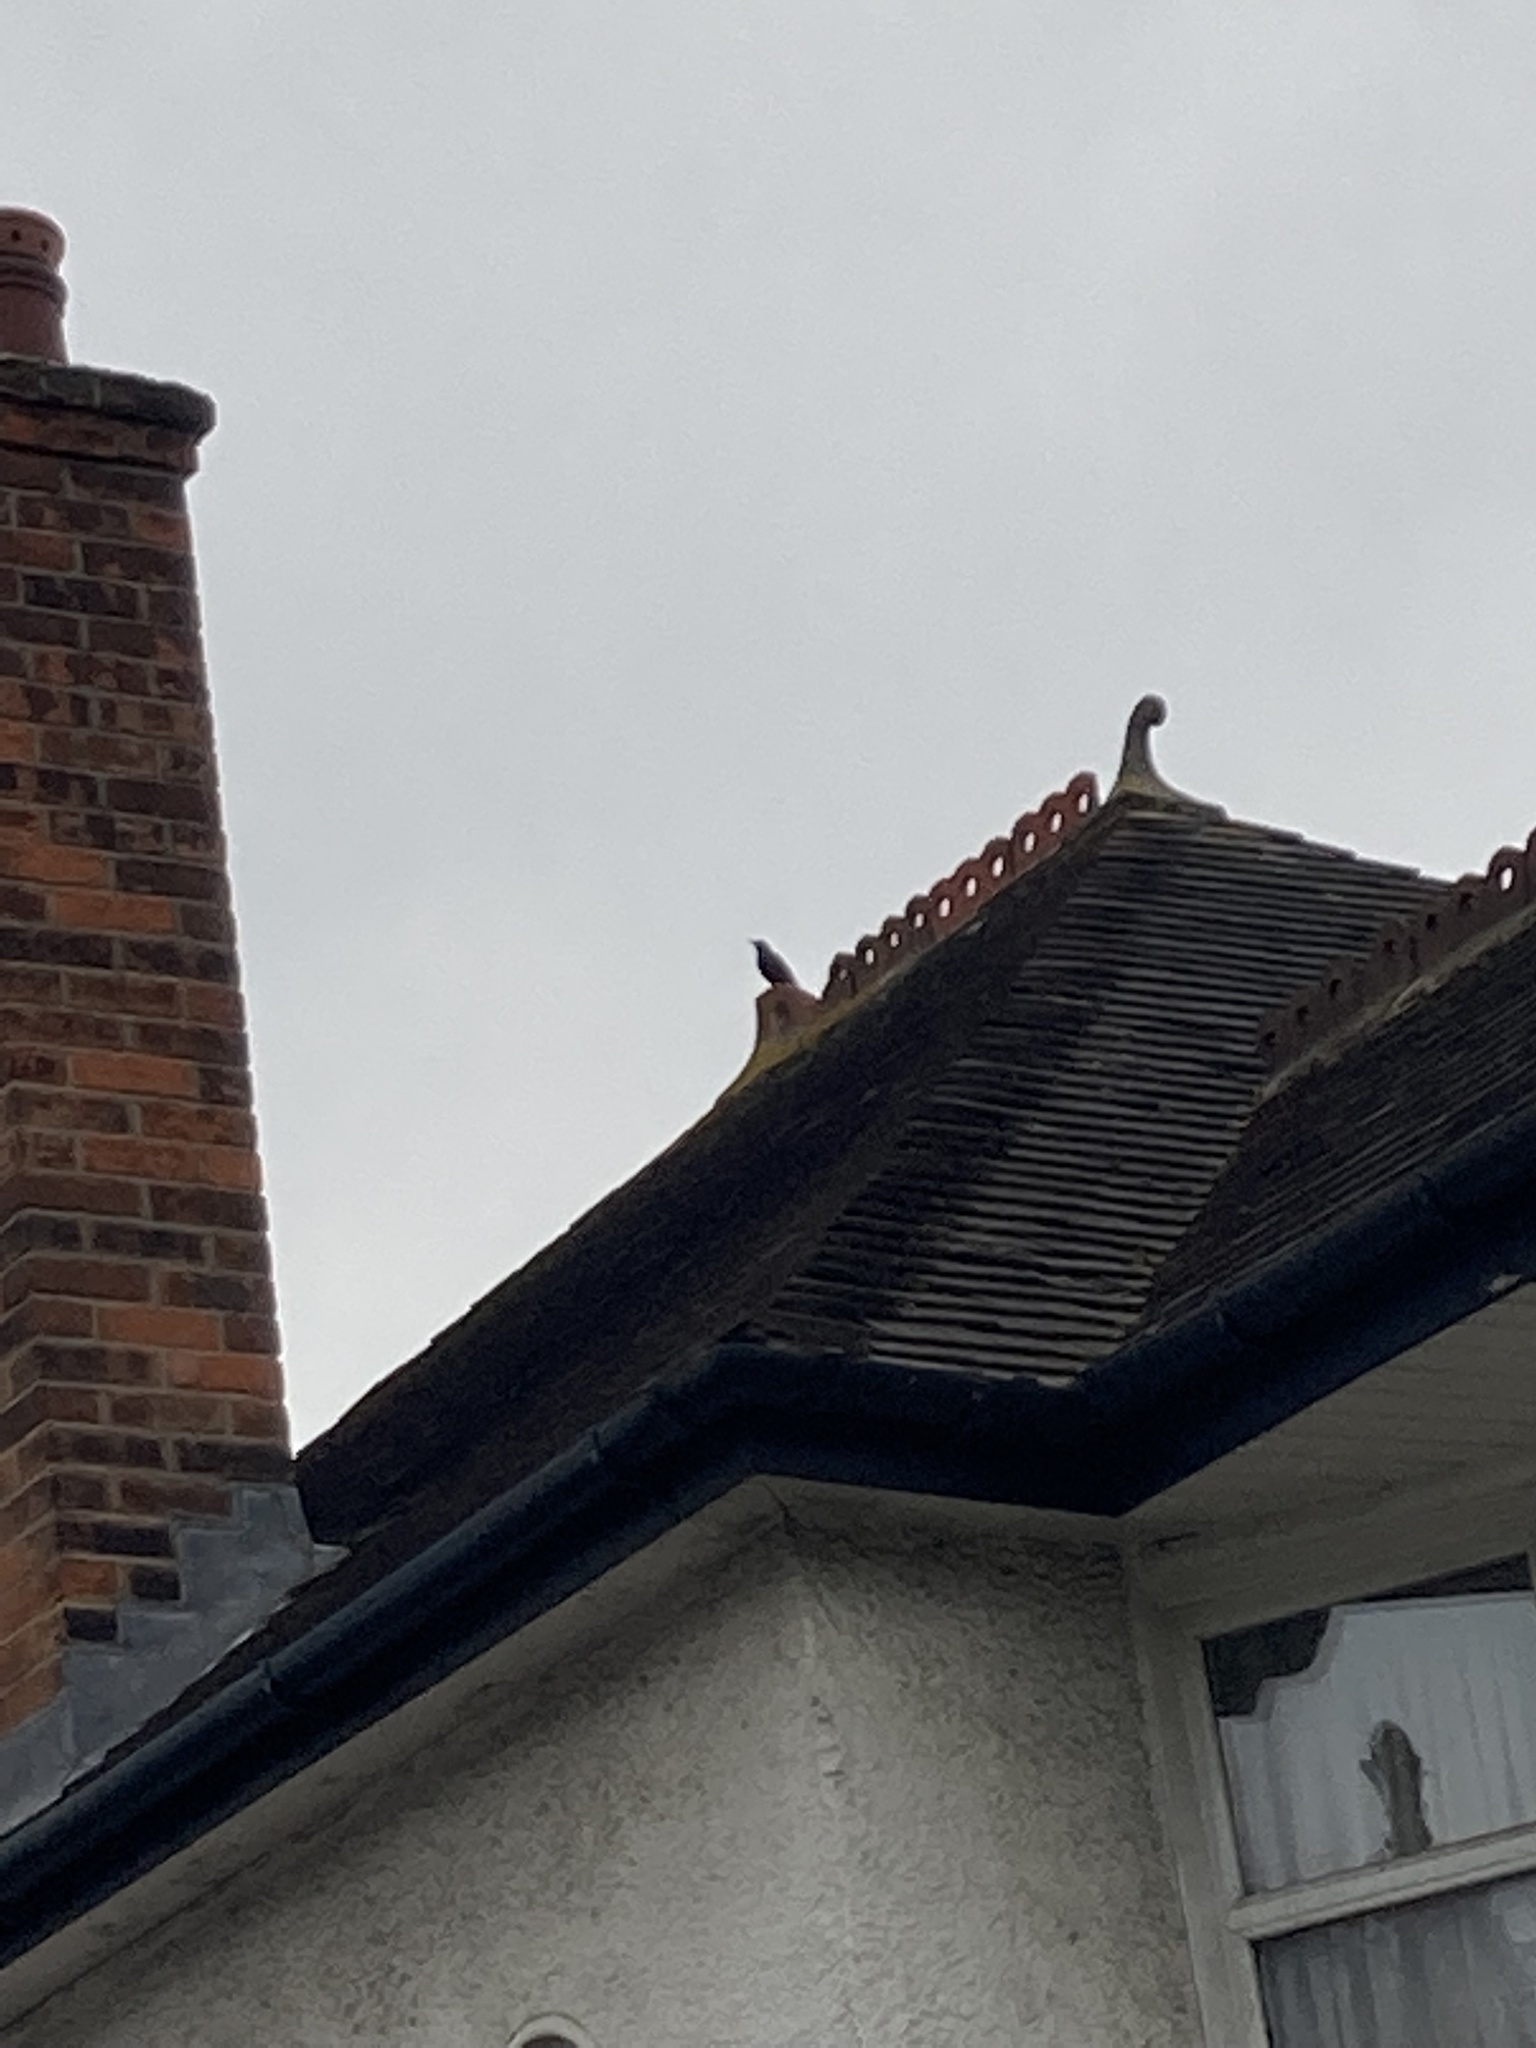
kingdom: Animalia
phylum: Chordata
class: Aves
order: Passeriformes
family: Sturnidae
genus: Sturnus
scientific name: Sturnus vulgaris
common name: Common starling
